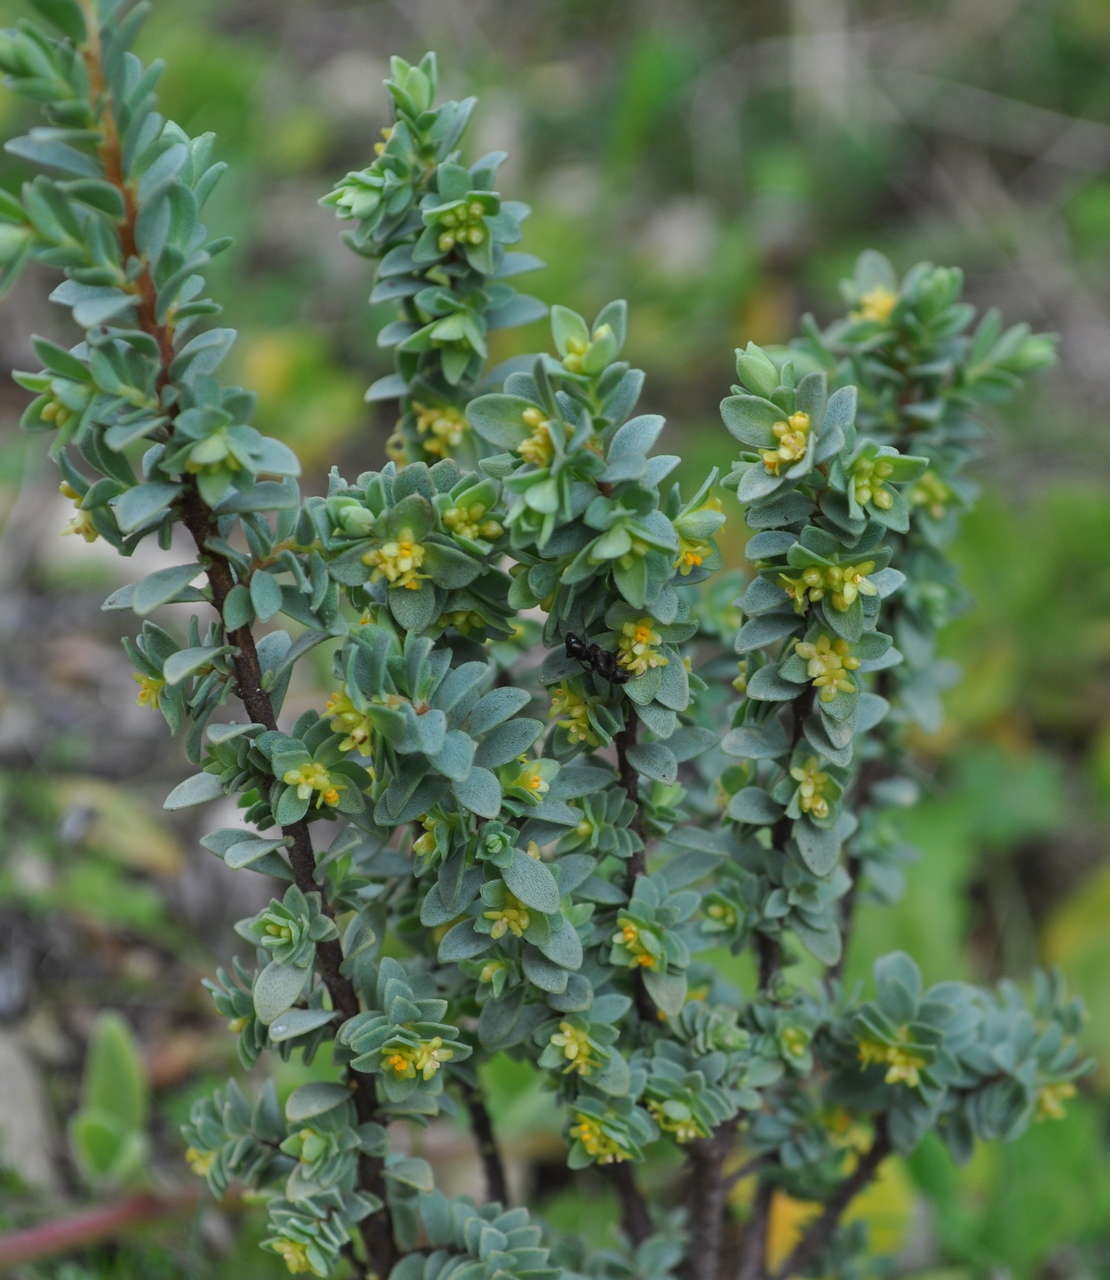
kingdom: Plantae
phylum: Tracheophyta
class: Magnoliopsida
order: Malvales
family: Thymelaeaceae
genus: Pimelea
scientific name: Pimelea serpyllifolia
